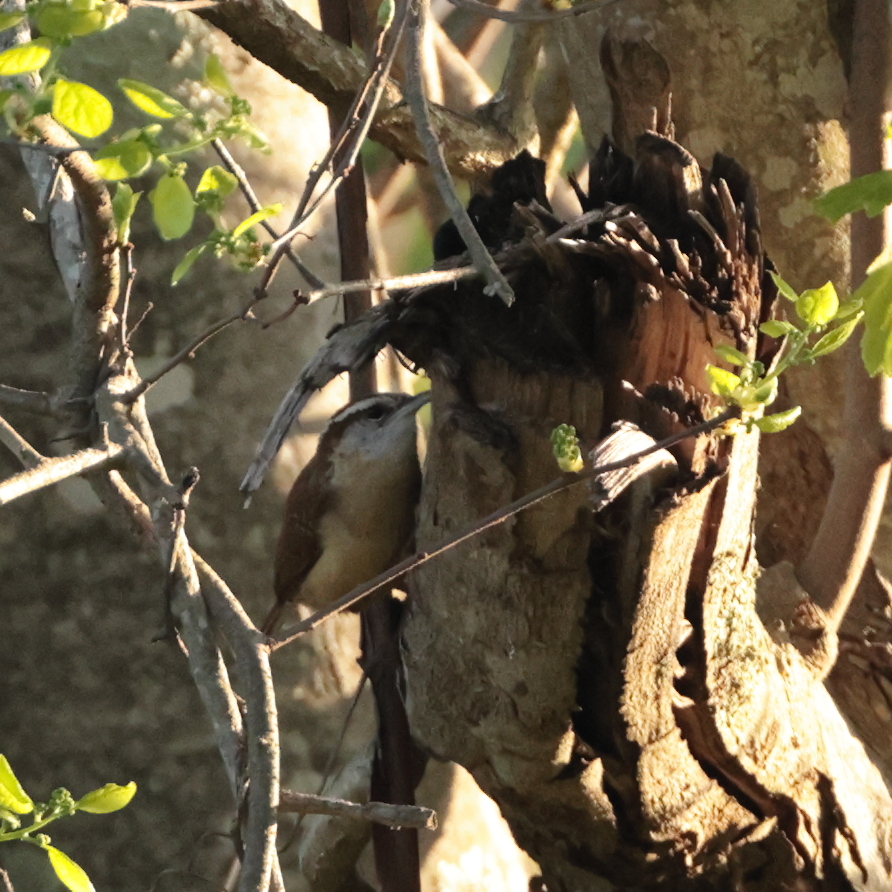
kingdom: Animalia
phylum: Chordata
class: Aves
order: Passeriformes
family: Troglodytidae
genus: Thryothorus
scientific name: Thryothorus ludovicianus
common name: Carolina wren
